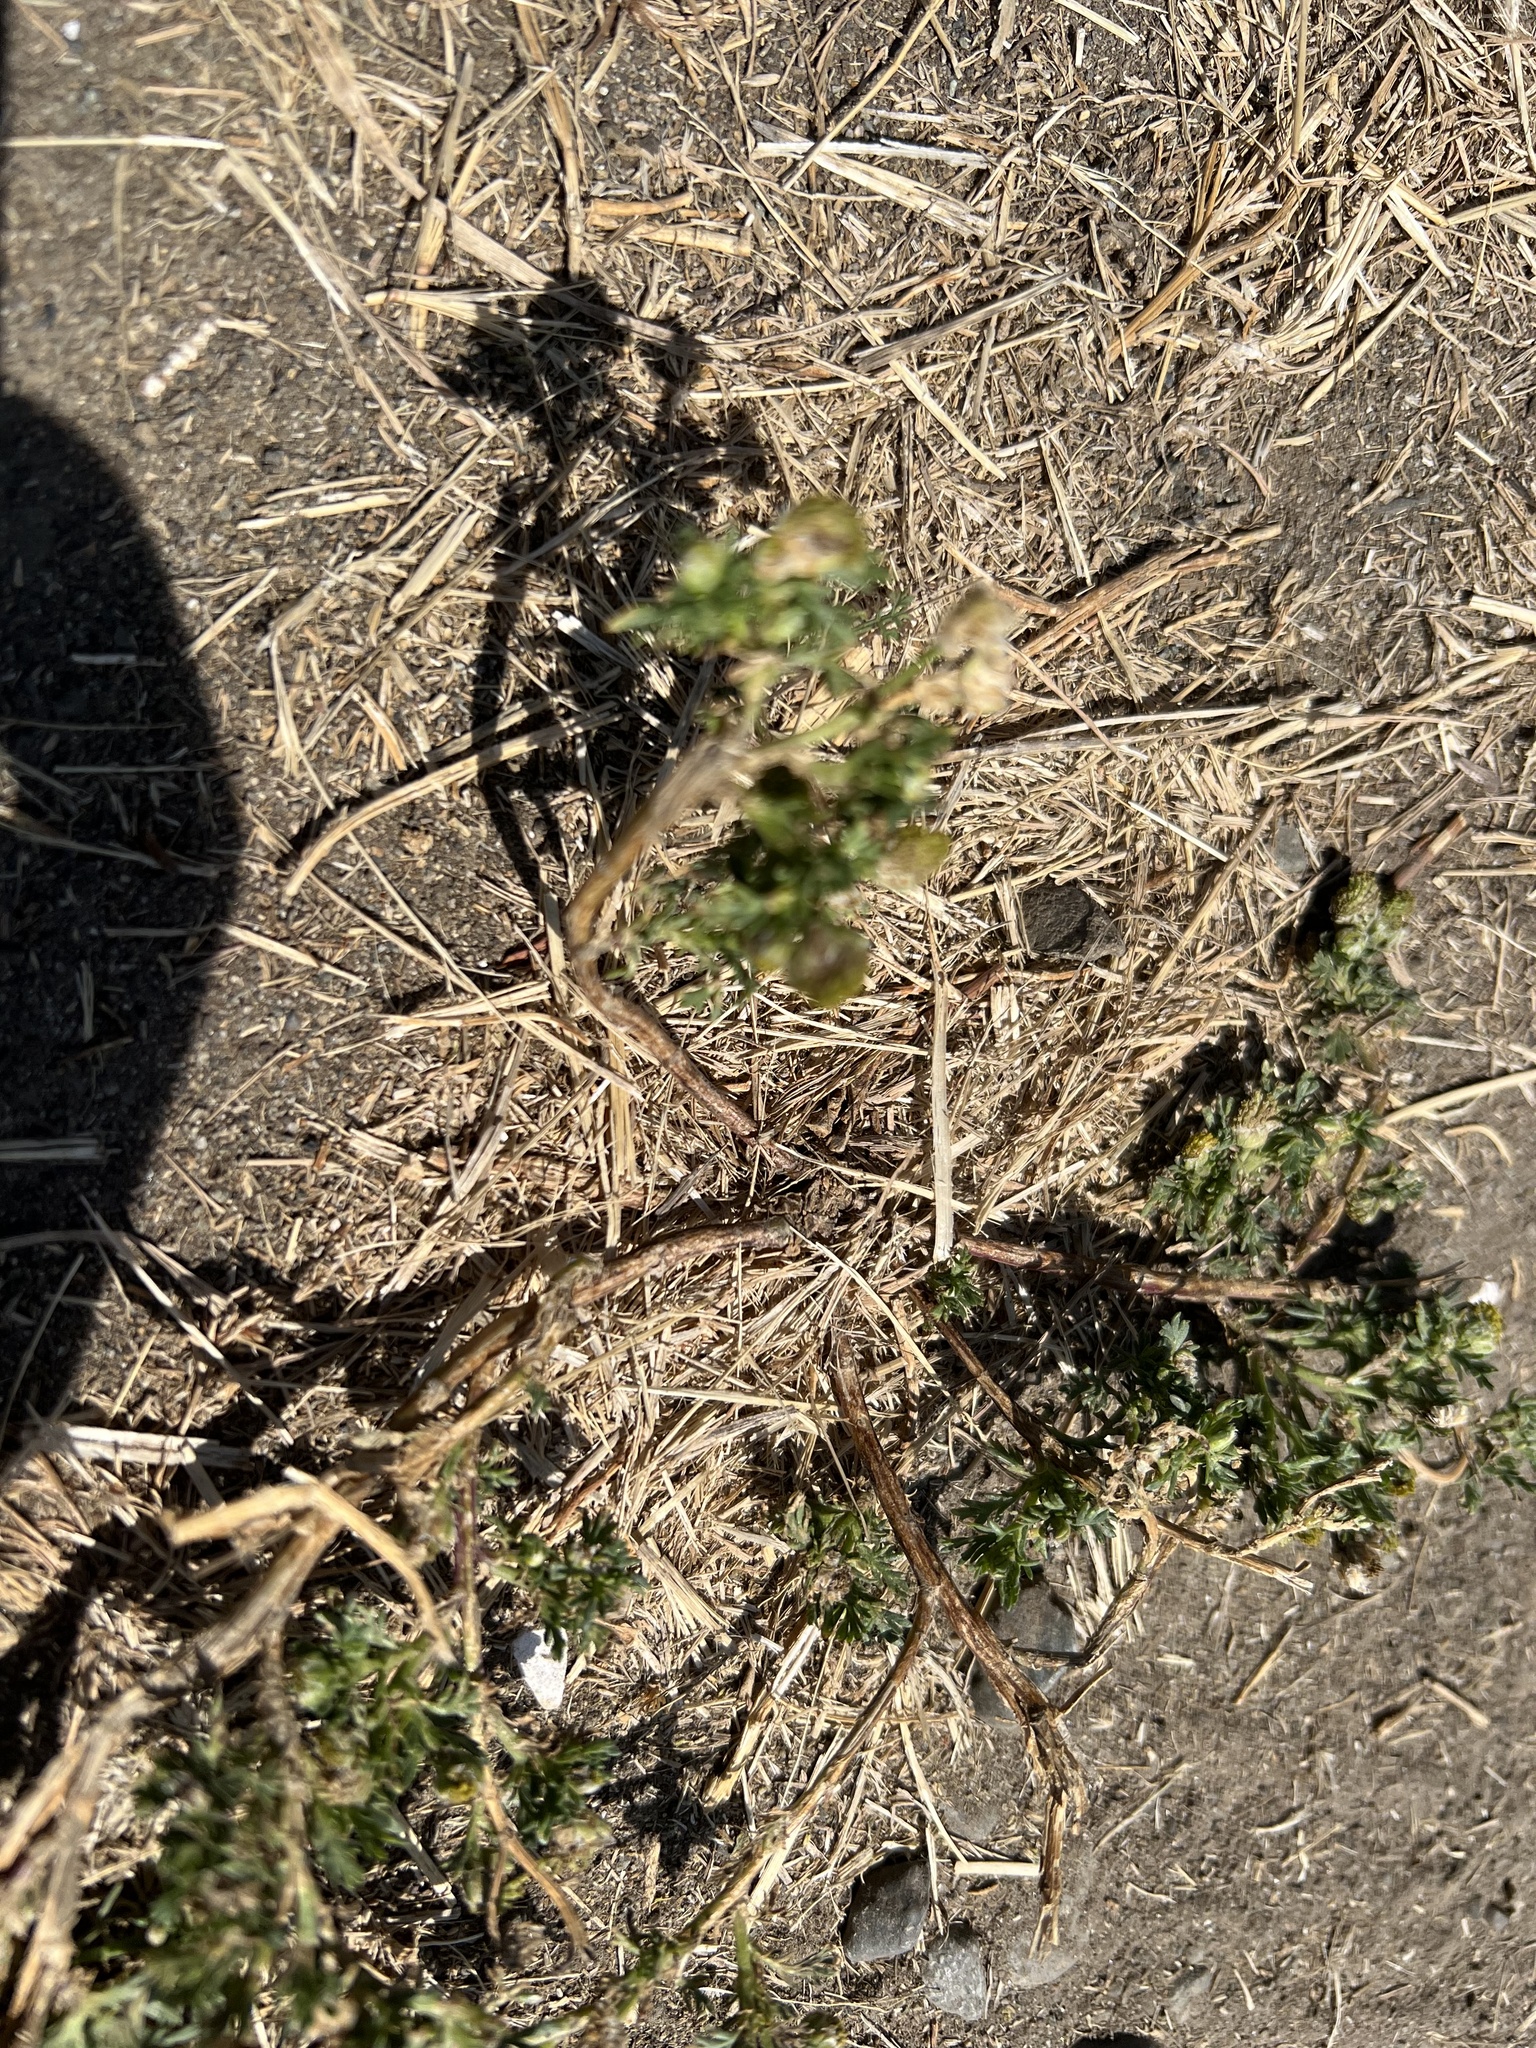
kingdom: Plantae
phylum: Tracheophyta
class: Magnoliopsida
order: Asterales
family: Asteraceae
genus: Matricaria
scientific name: Matricaria discoidea
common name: Disc mayweed
